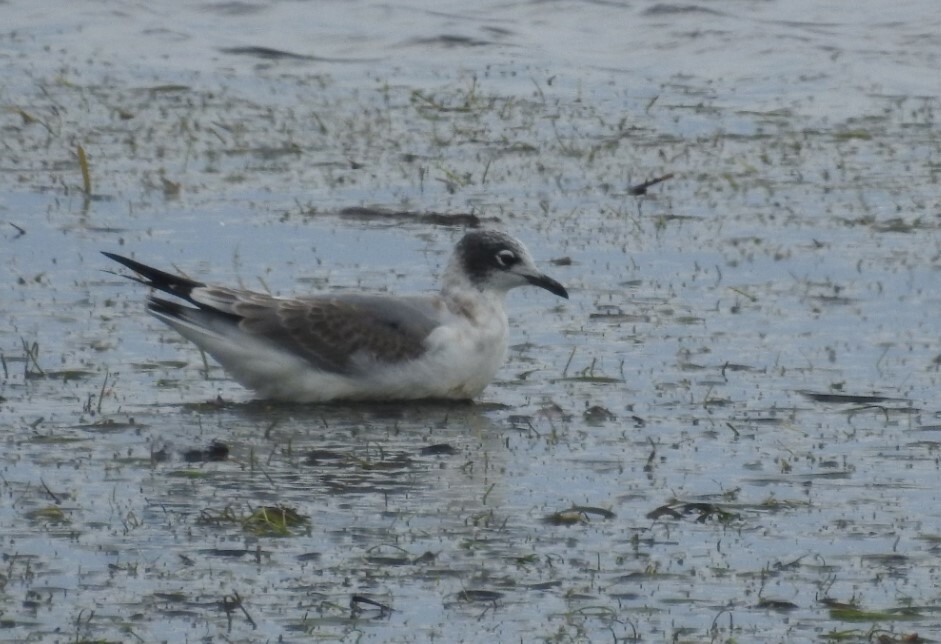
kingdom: Animalia
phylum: Chordata
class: Aves
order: Charadriiformes
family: Laridae
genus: Leucophaeus
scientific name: Leucophaeus pipixcan
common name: Franklin's gull
